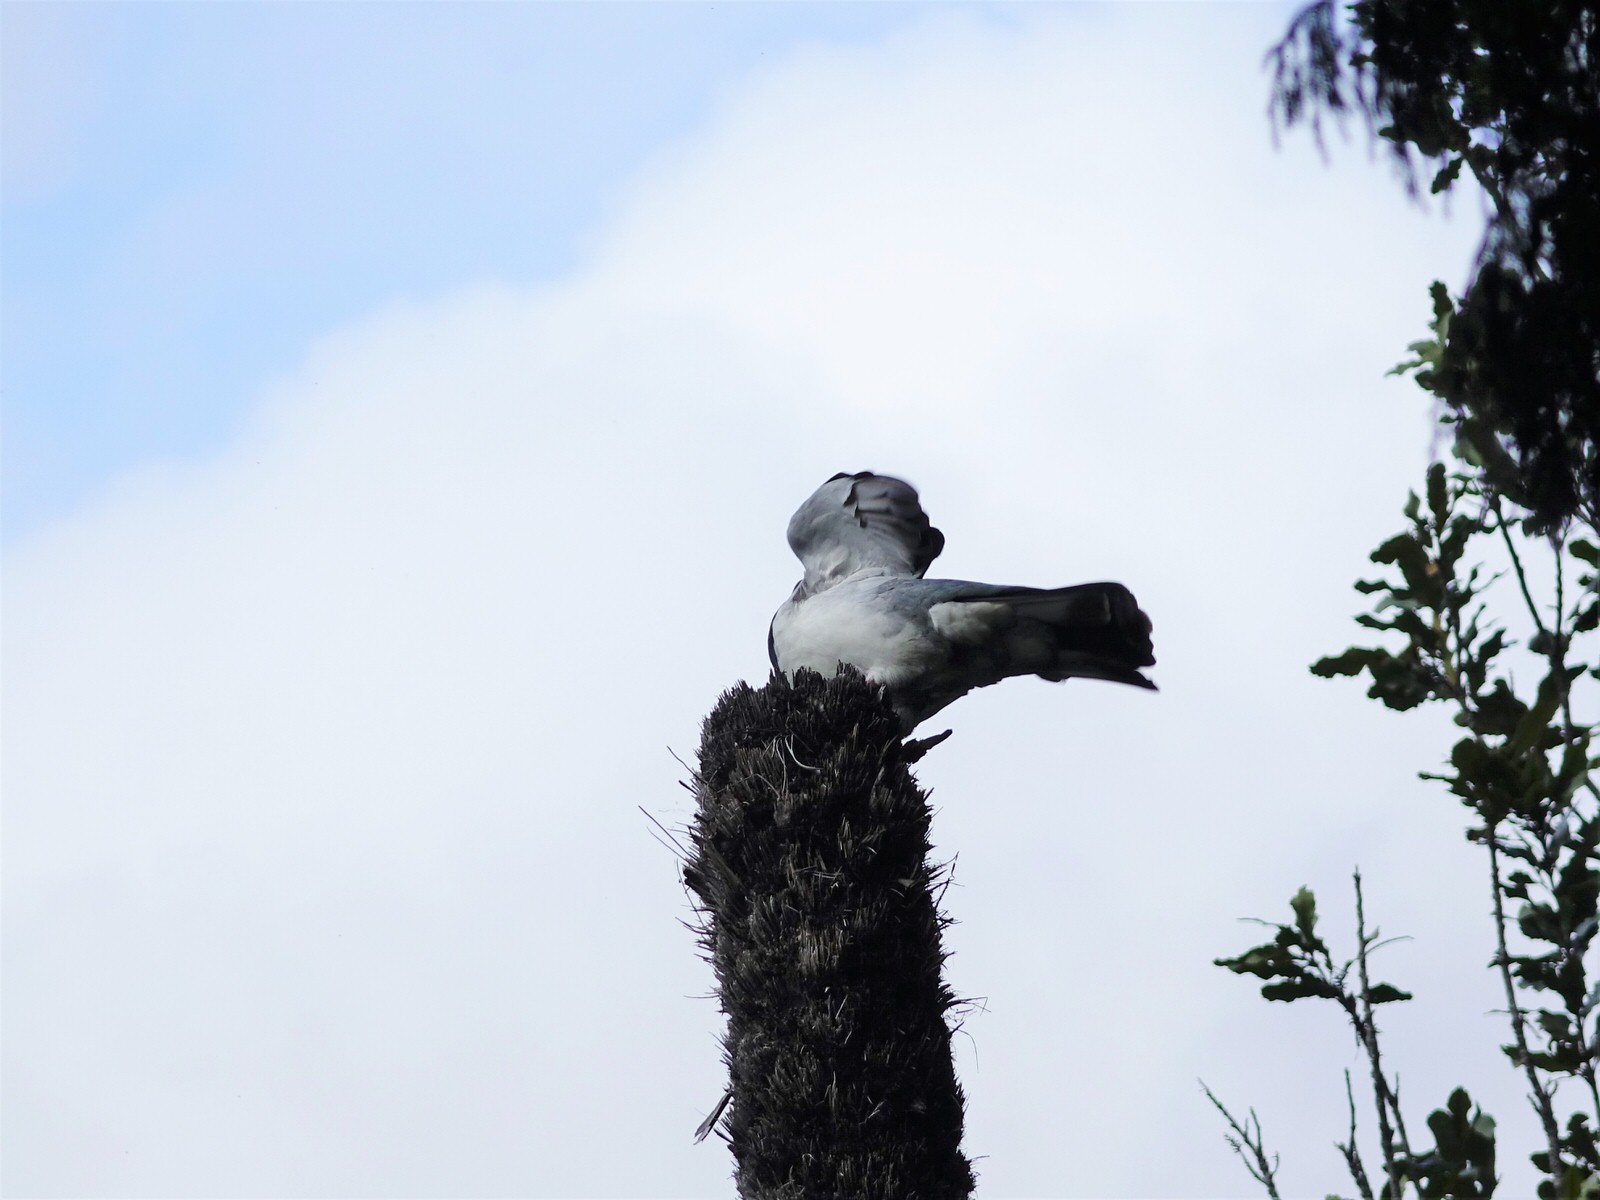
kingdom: Animalia
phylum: Chordata
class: Aves
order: Columbiformes
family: Columbidae
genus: Hemiphaga
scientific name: Hemiphaga novaeseelandiae
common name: New zealand pigeon
